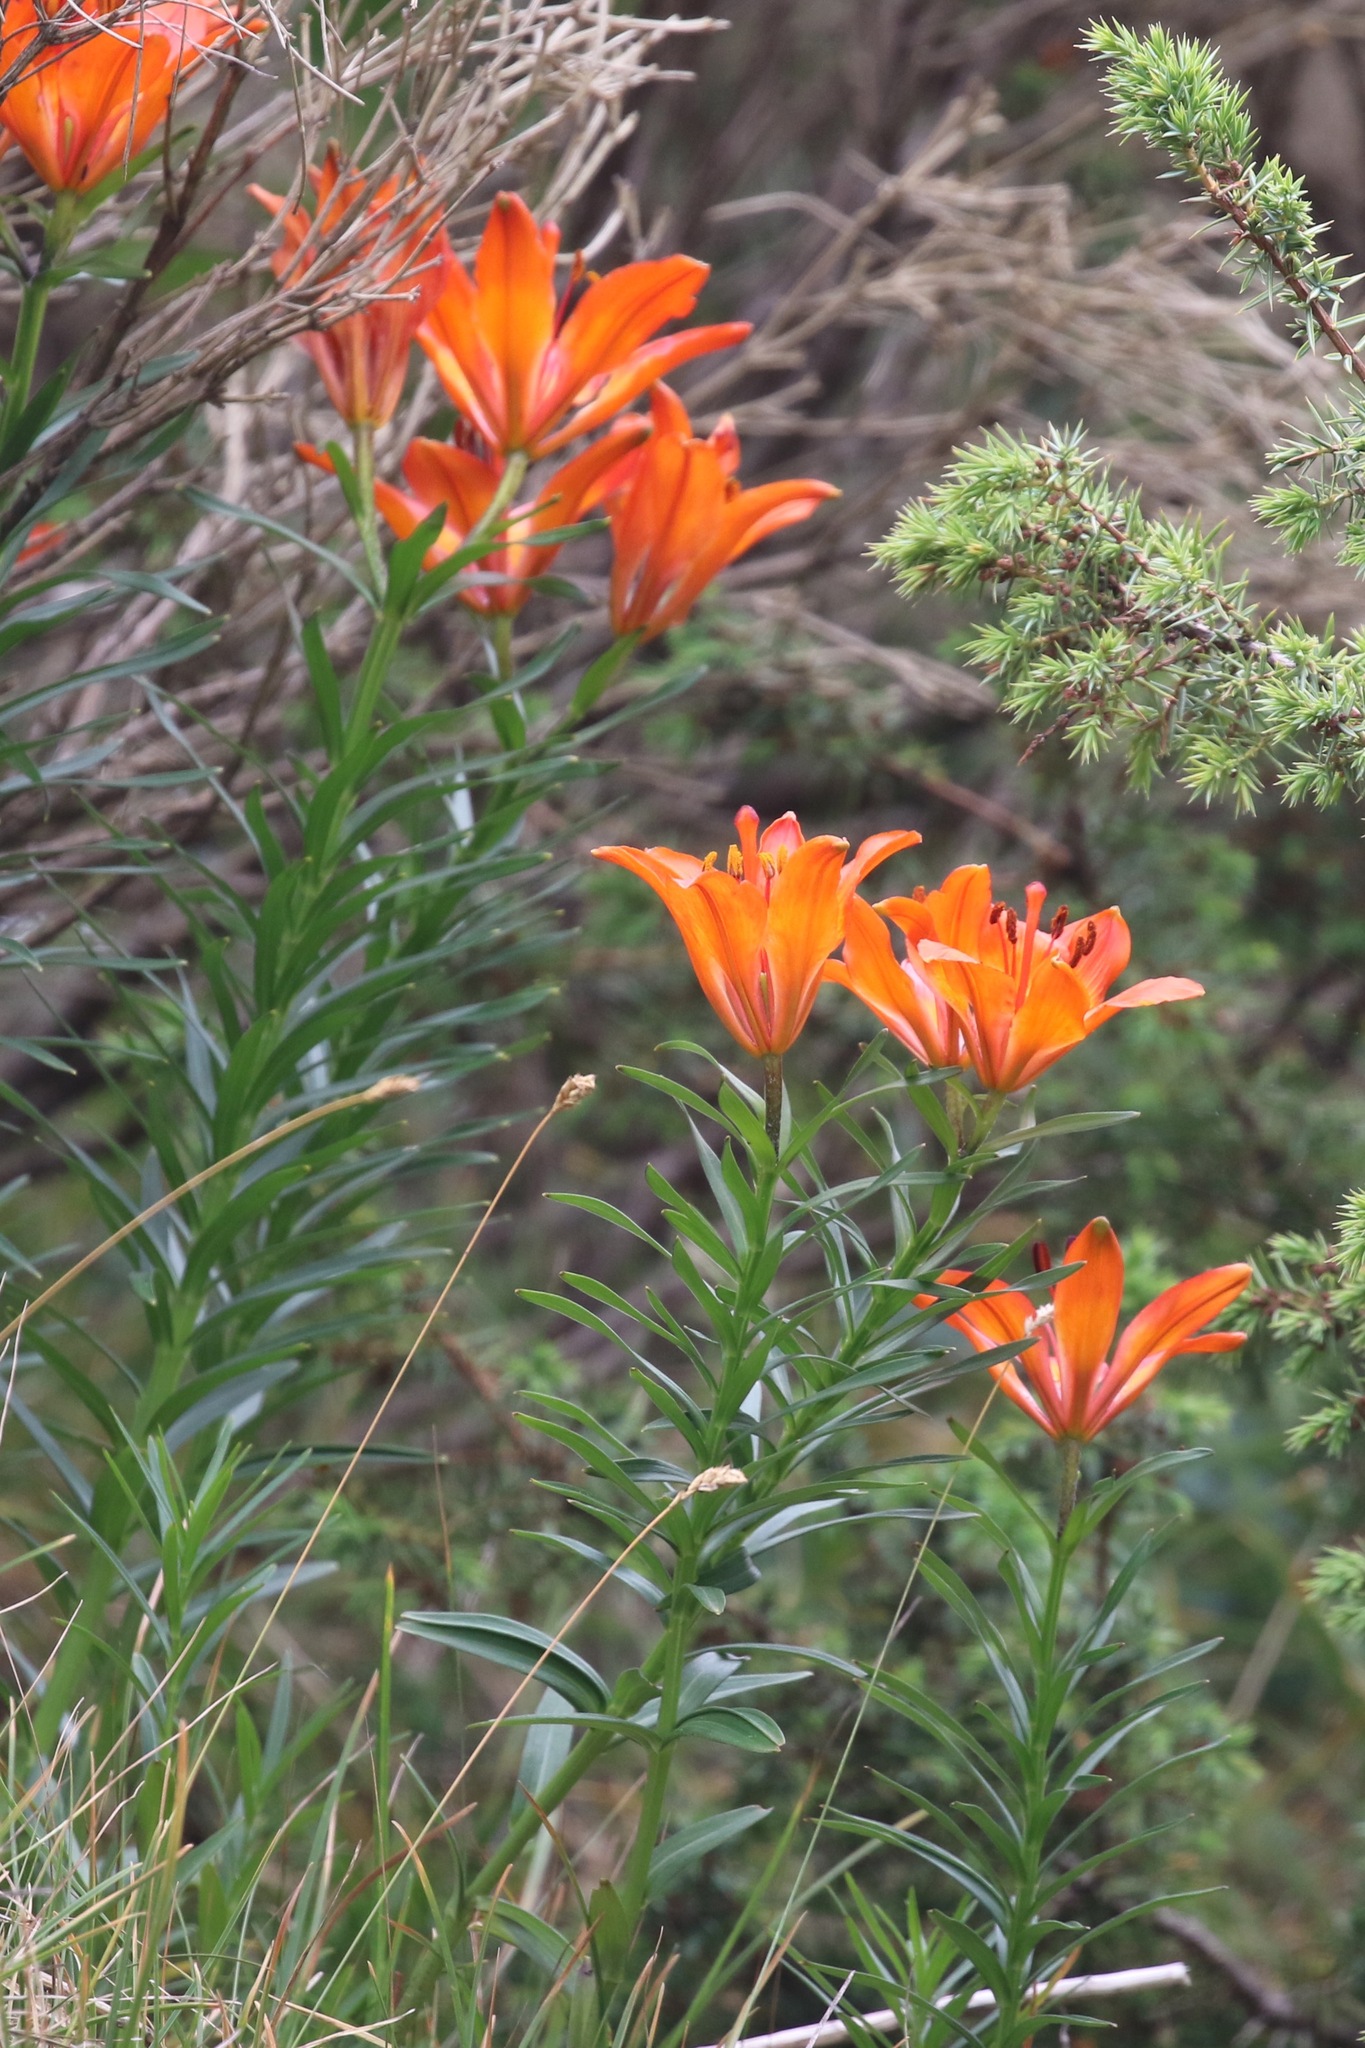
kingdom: Plantae
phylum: Tracheophyta
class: Liliopsida
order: Liliales
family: Liliaceae
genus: Lilium
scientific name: Lilium bulbiferum
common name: Orange lily
